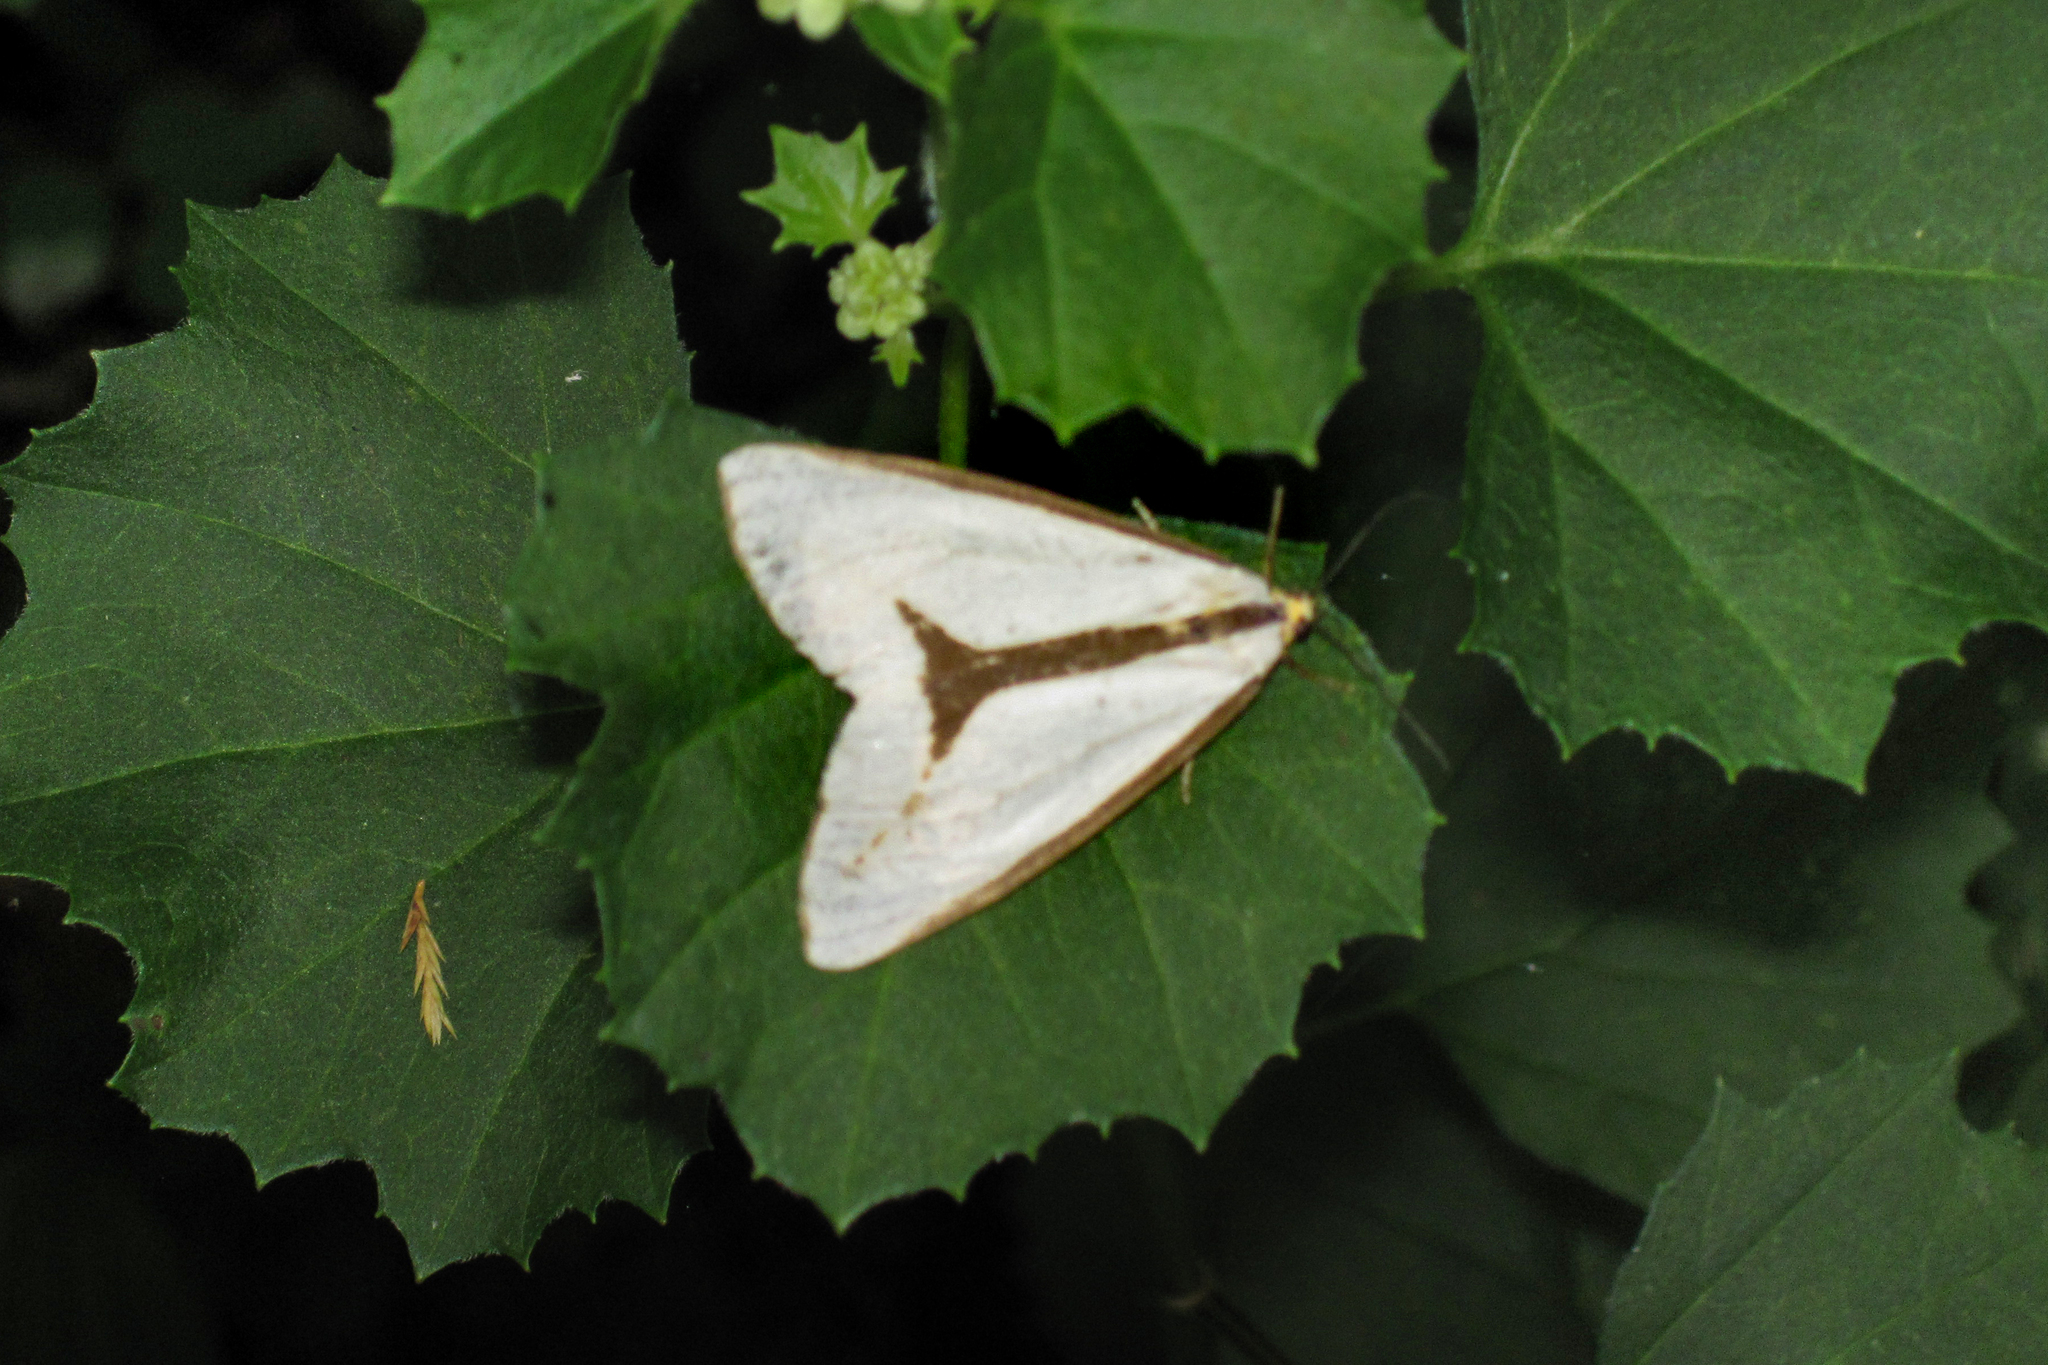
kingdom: Animalia
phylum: Arthropoda
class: Insecta
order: Lepidoptera
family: Erebidae
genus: Haploa
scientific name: Haploa lecontei
